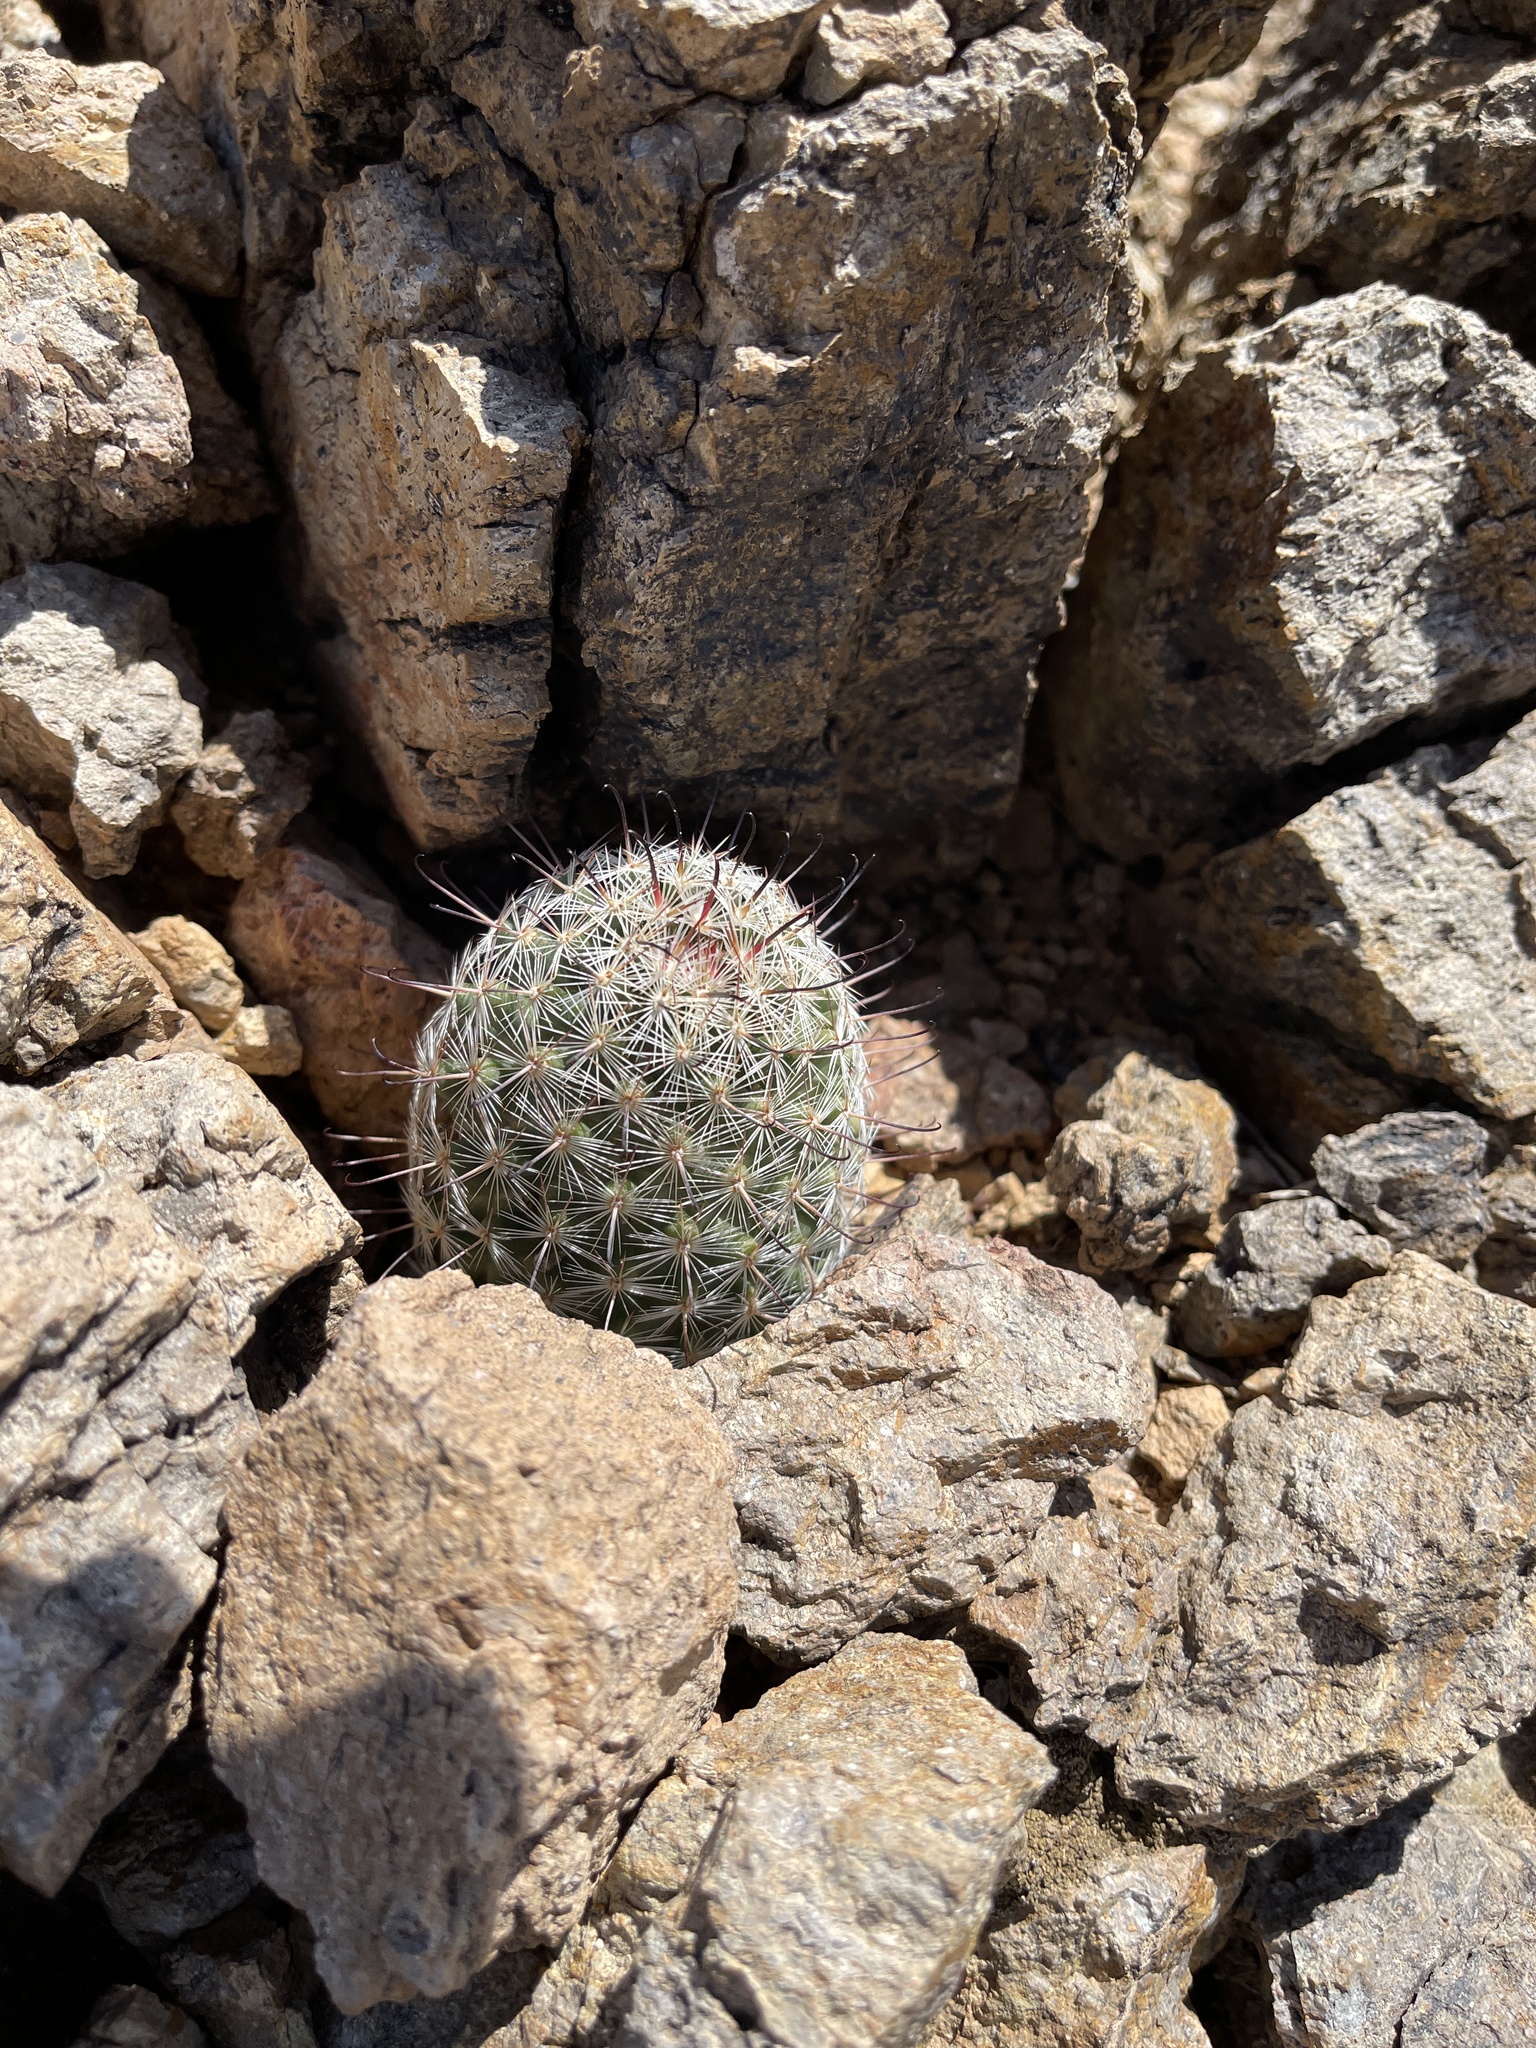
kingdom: Plantae
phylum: Tracheophyta
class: Magnoliopsida
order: Caryophyllales
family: Cactaceae
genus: Cochemiea
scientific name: Cochemiea grahamii
